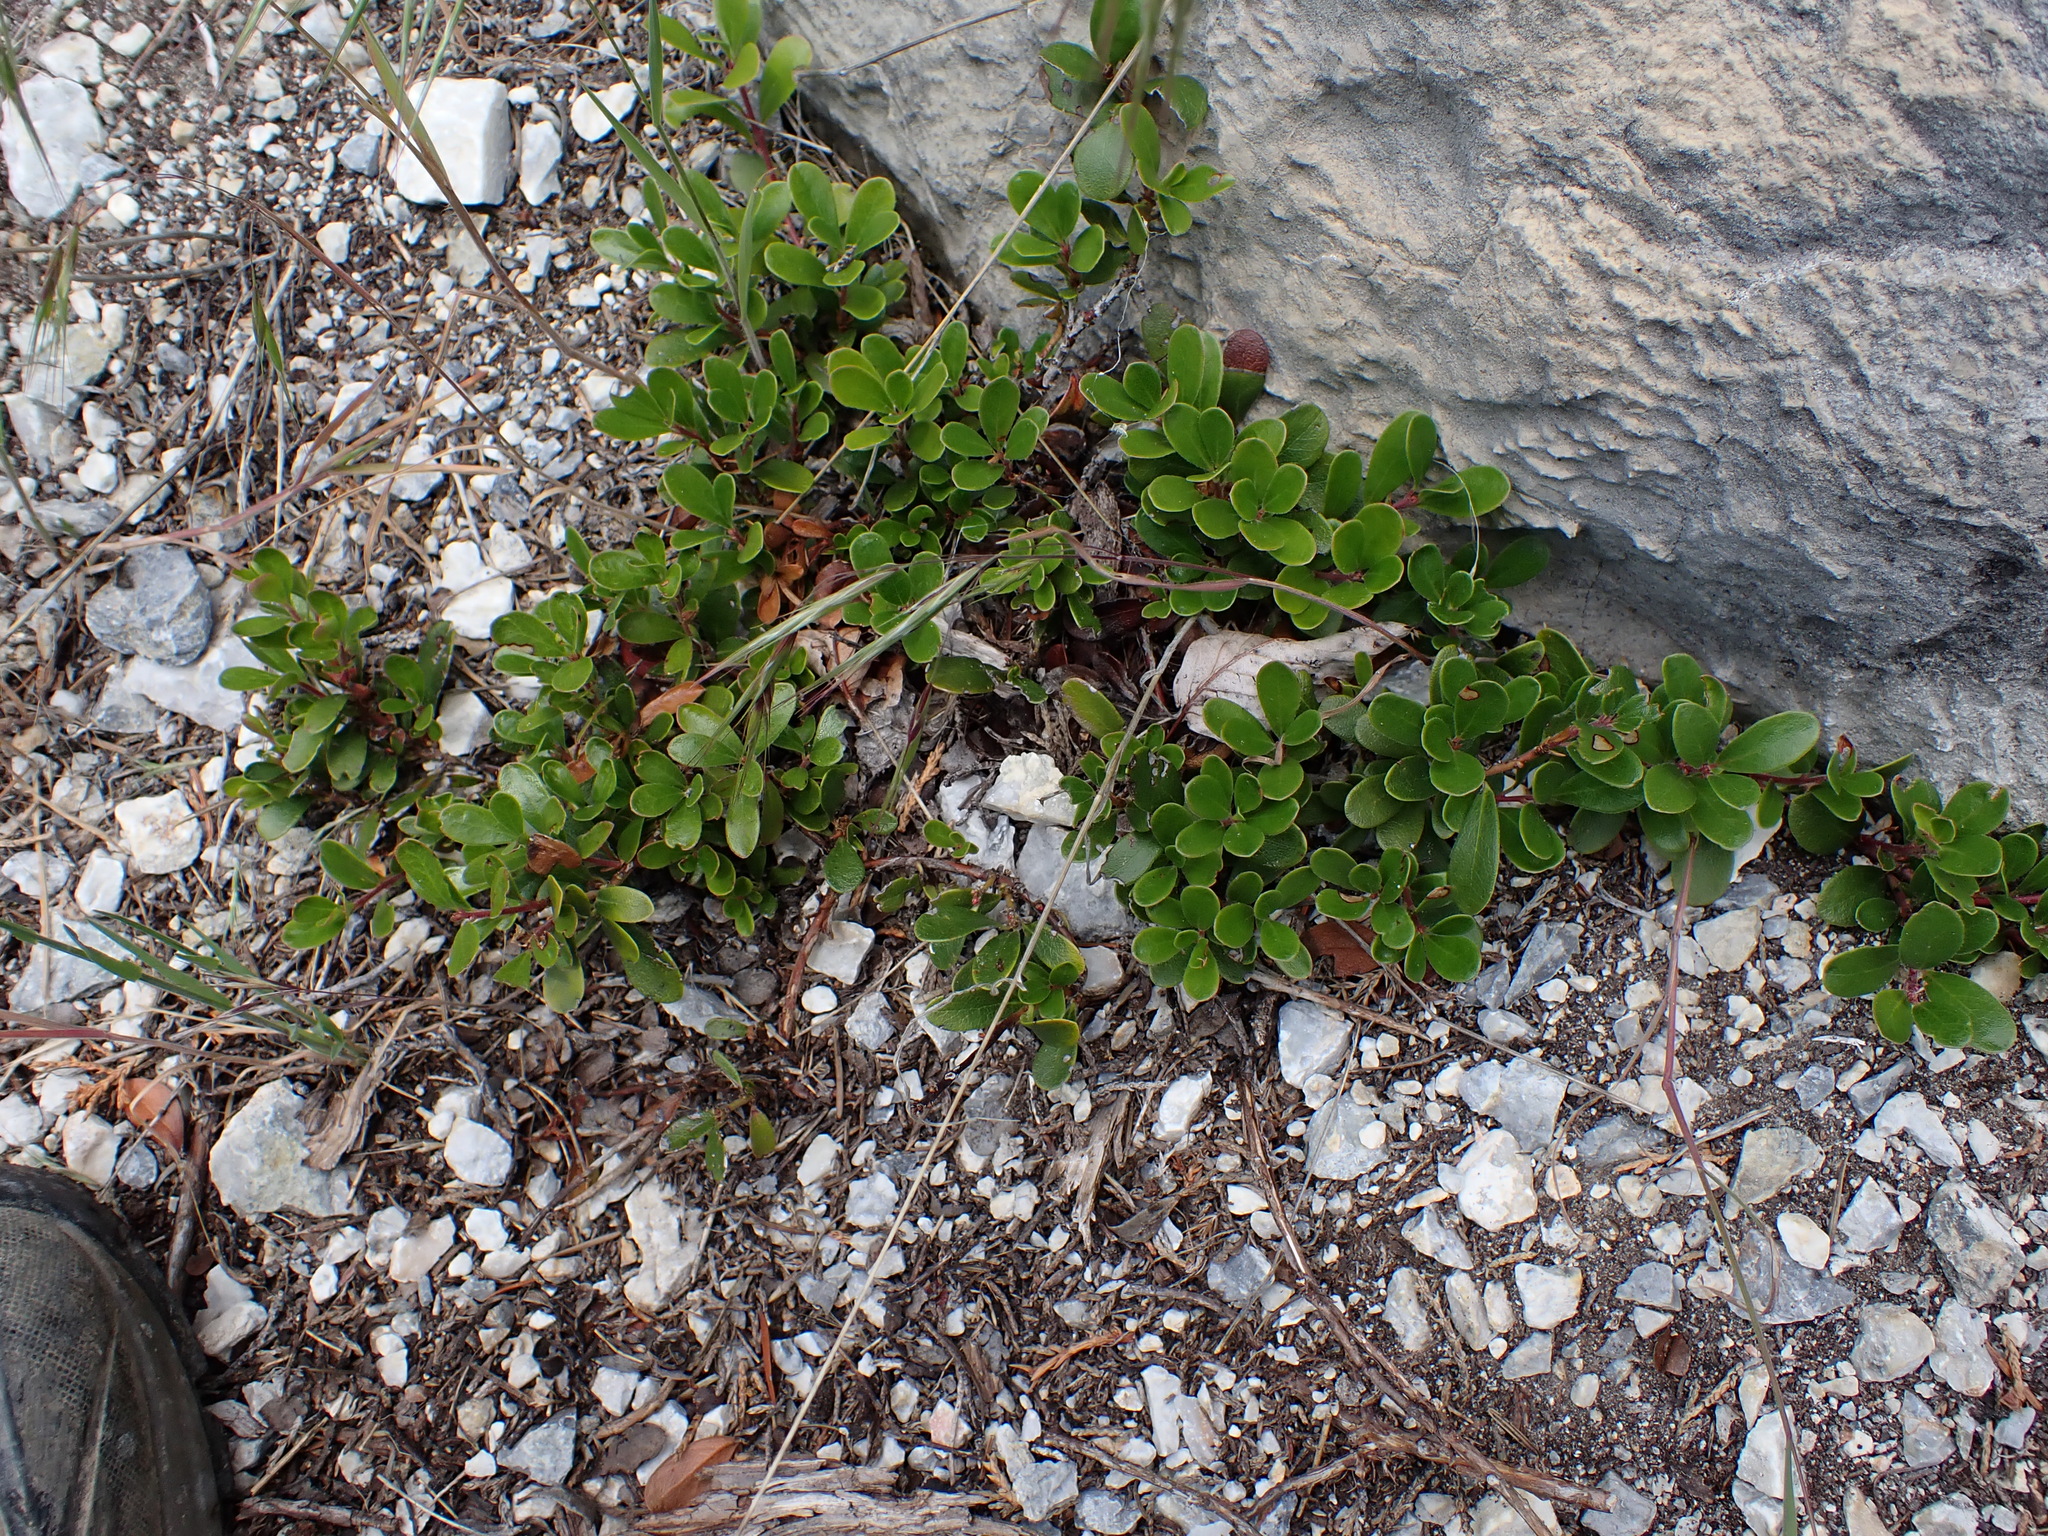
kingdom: Plantae
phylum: Tracheophyta
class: Magnoliopsida
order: Ericales
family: Ericaceae
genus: Arctostaphylos
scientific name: Arctostaphylos uva-ursi
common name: Bearberry
